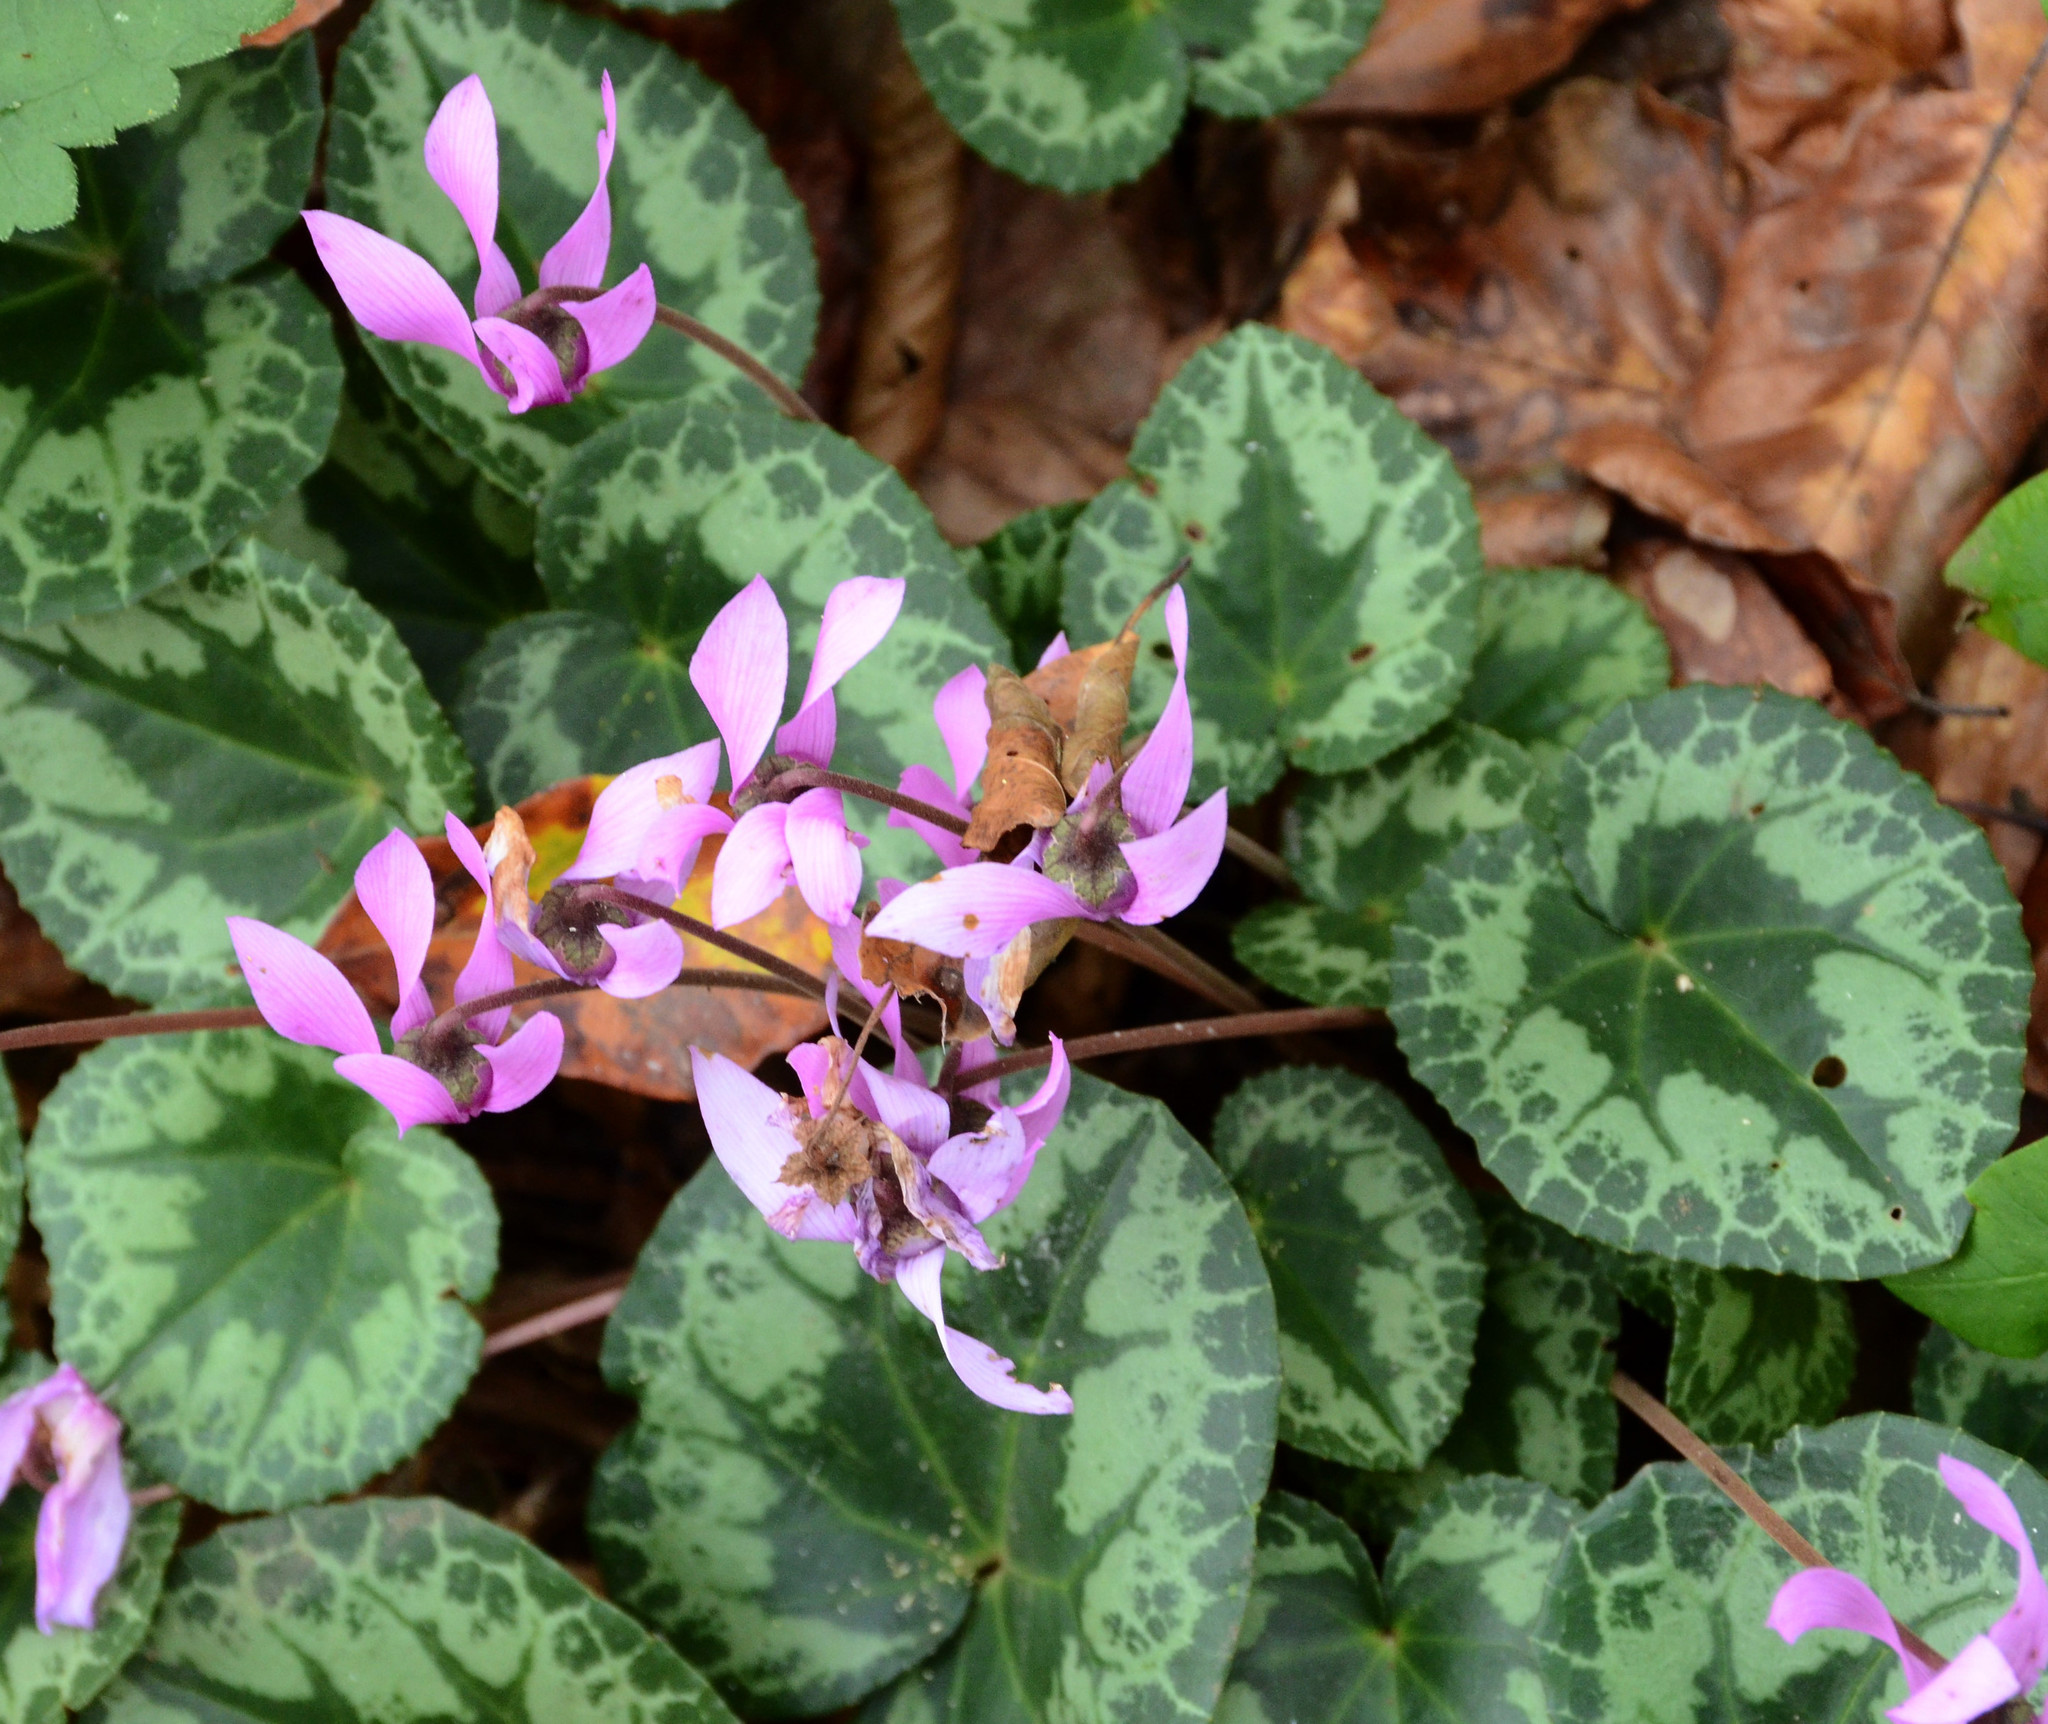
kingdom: Plantae
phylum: Tracheophyta
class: Magnoliopsida
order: Ericales
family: Primulaceae
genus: Cyclamen
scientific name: Cyclamen purpurascens
